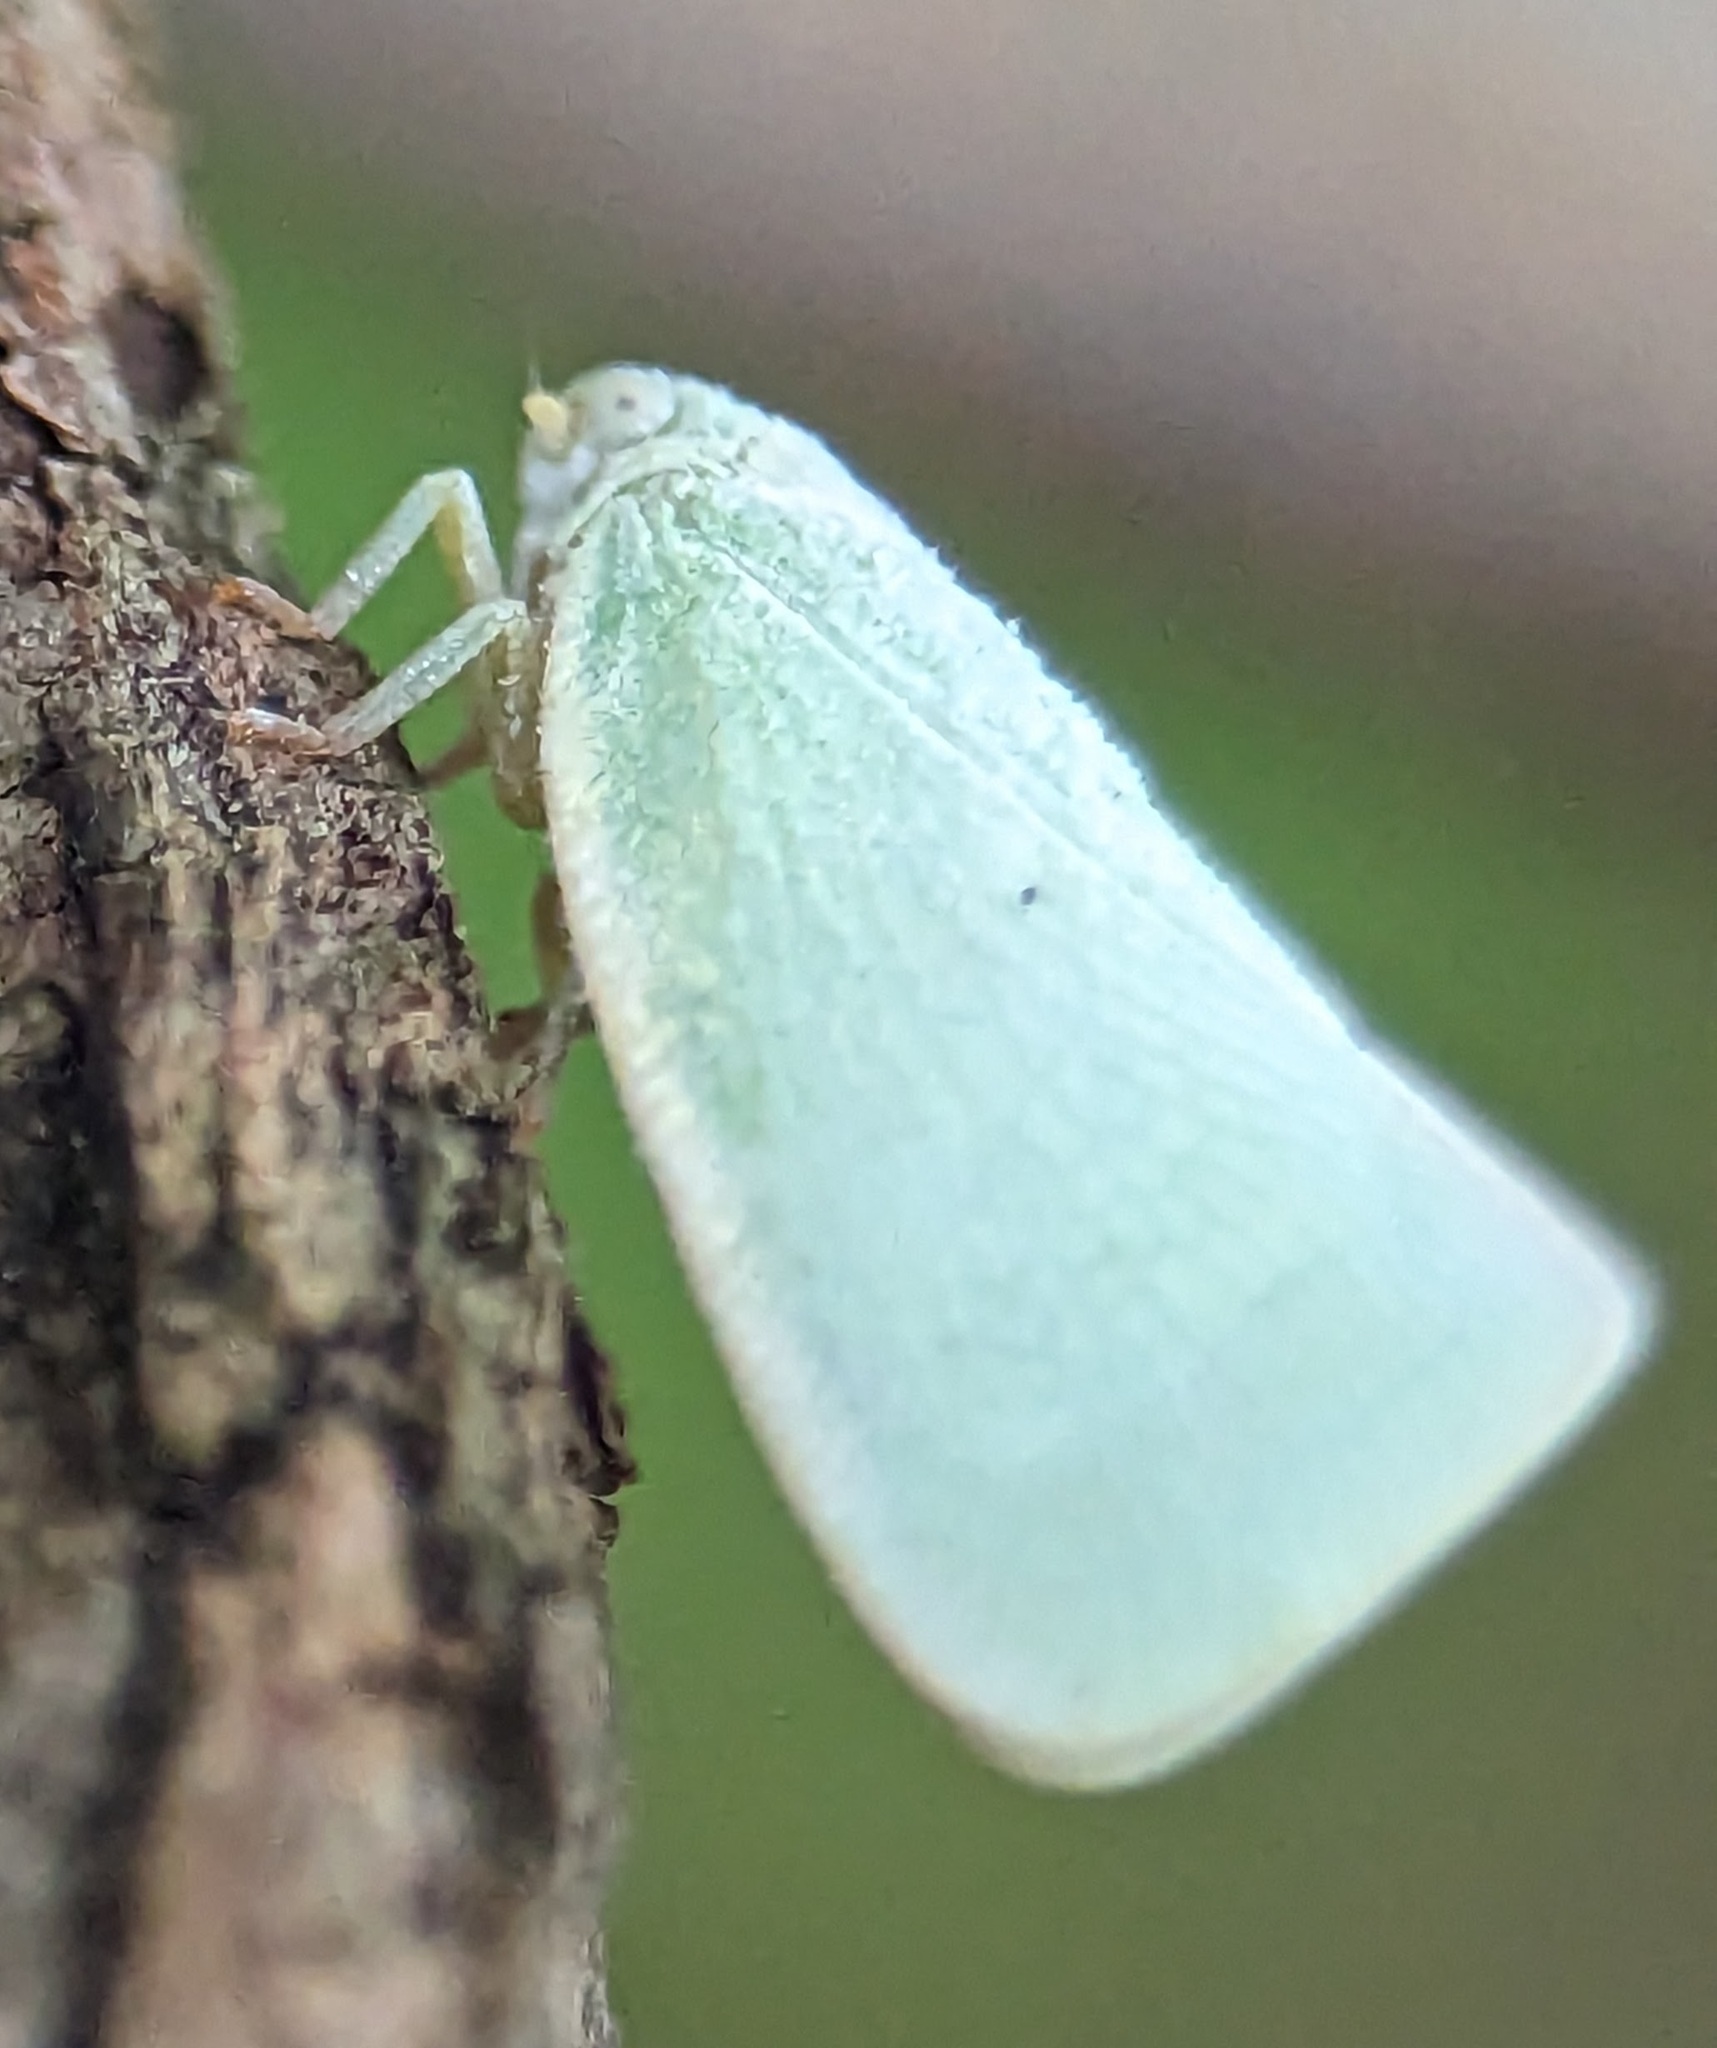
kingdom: Animalia
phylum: Arthropoda
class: Insecta
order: Hemiptera
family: Flatidae
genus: Flatormenis
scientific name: Flatormenis proxima
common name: Northern flatid planthopper
